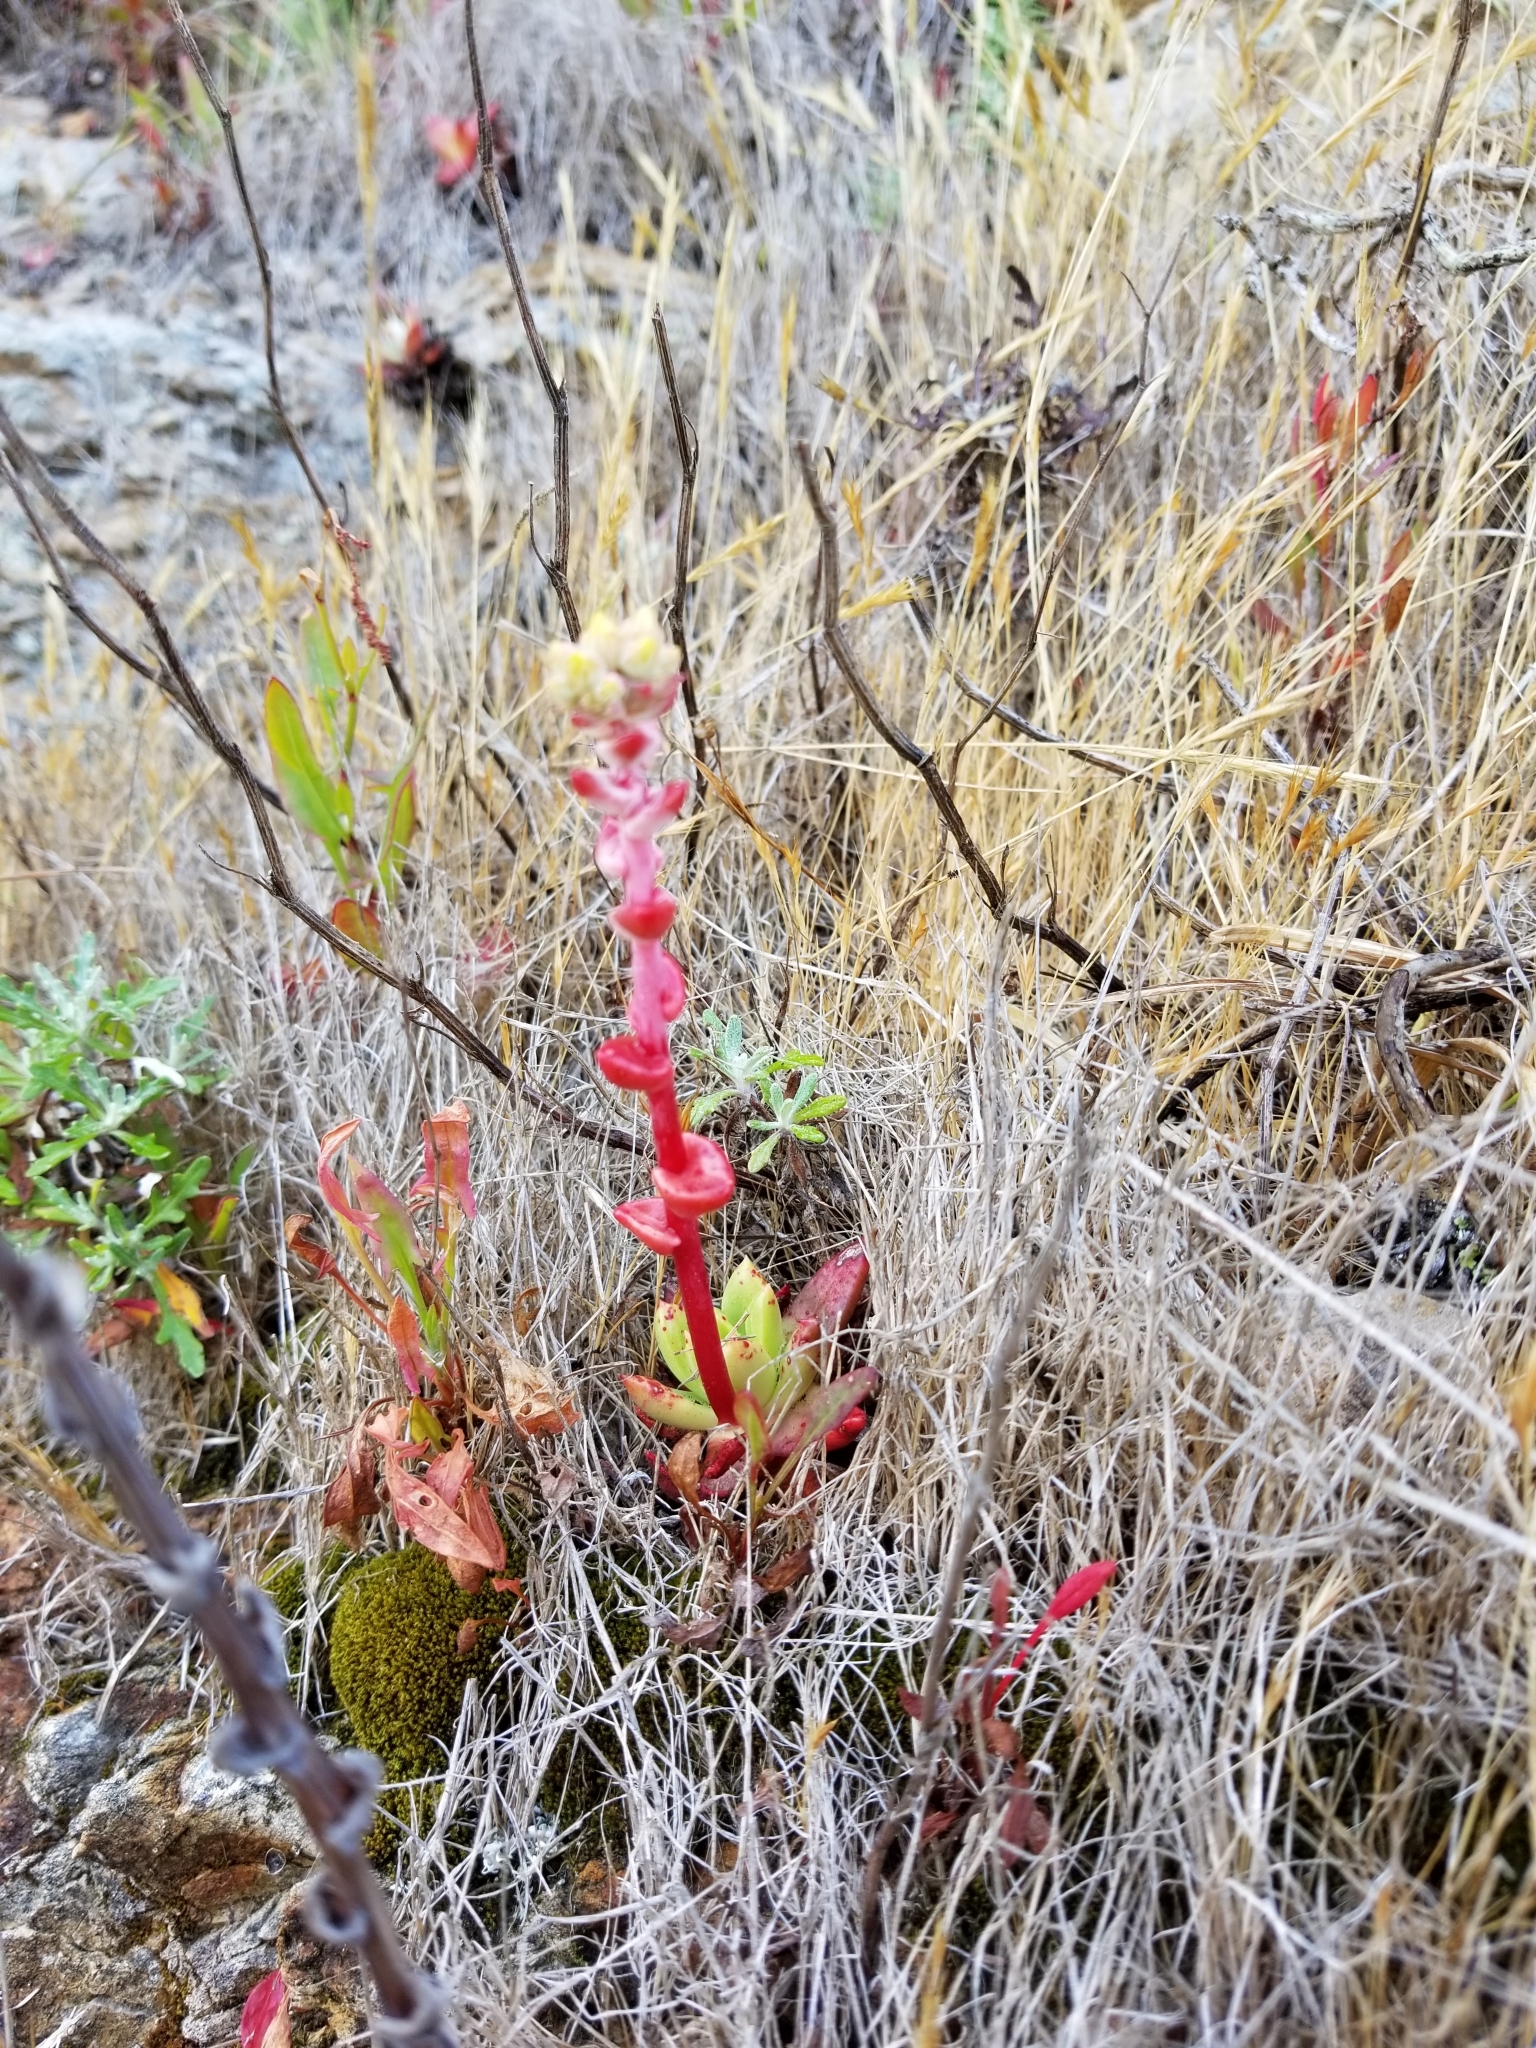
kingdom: Plantae
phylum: Tracheophyta
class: Magnoliopsida
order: Saxifragales
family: Crassulaceae
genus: Dudleya
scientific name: Dudleya farinosa
